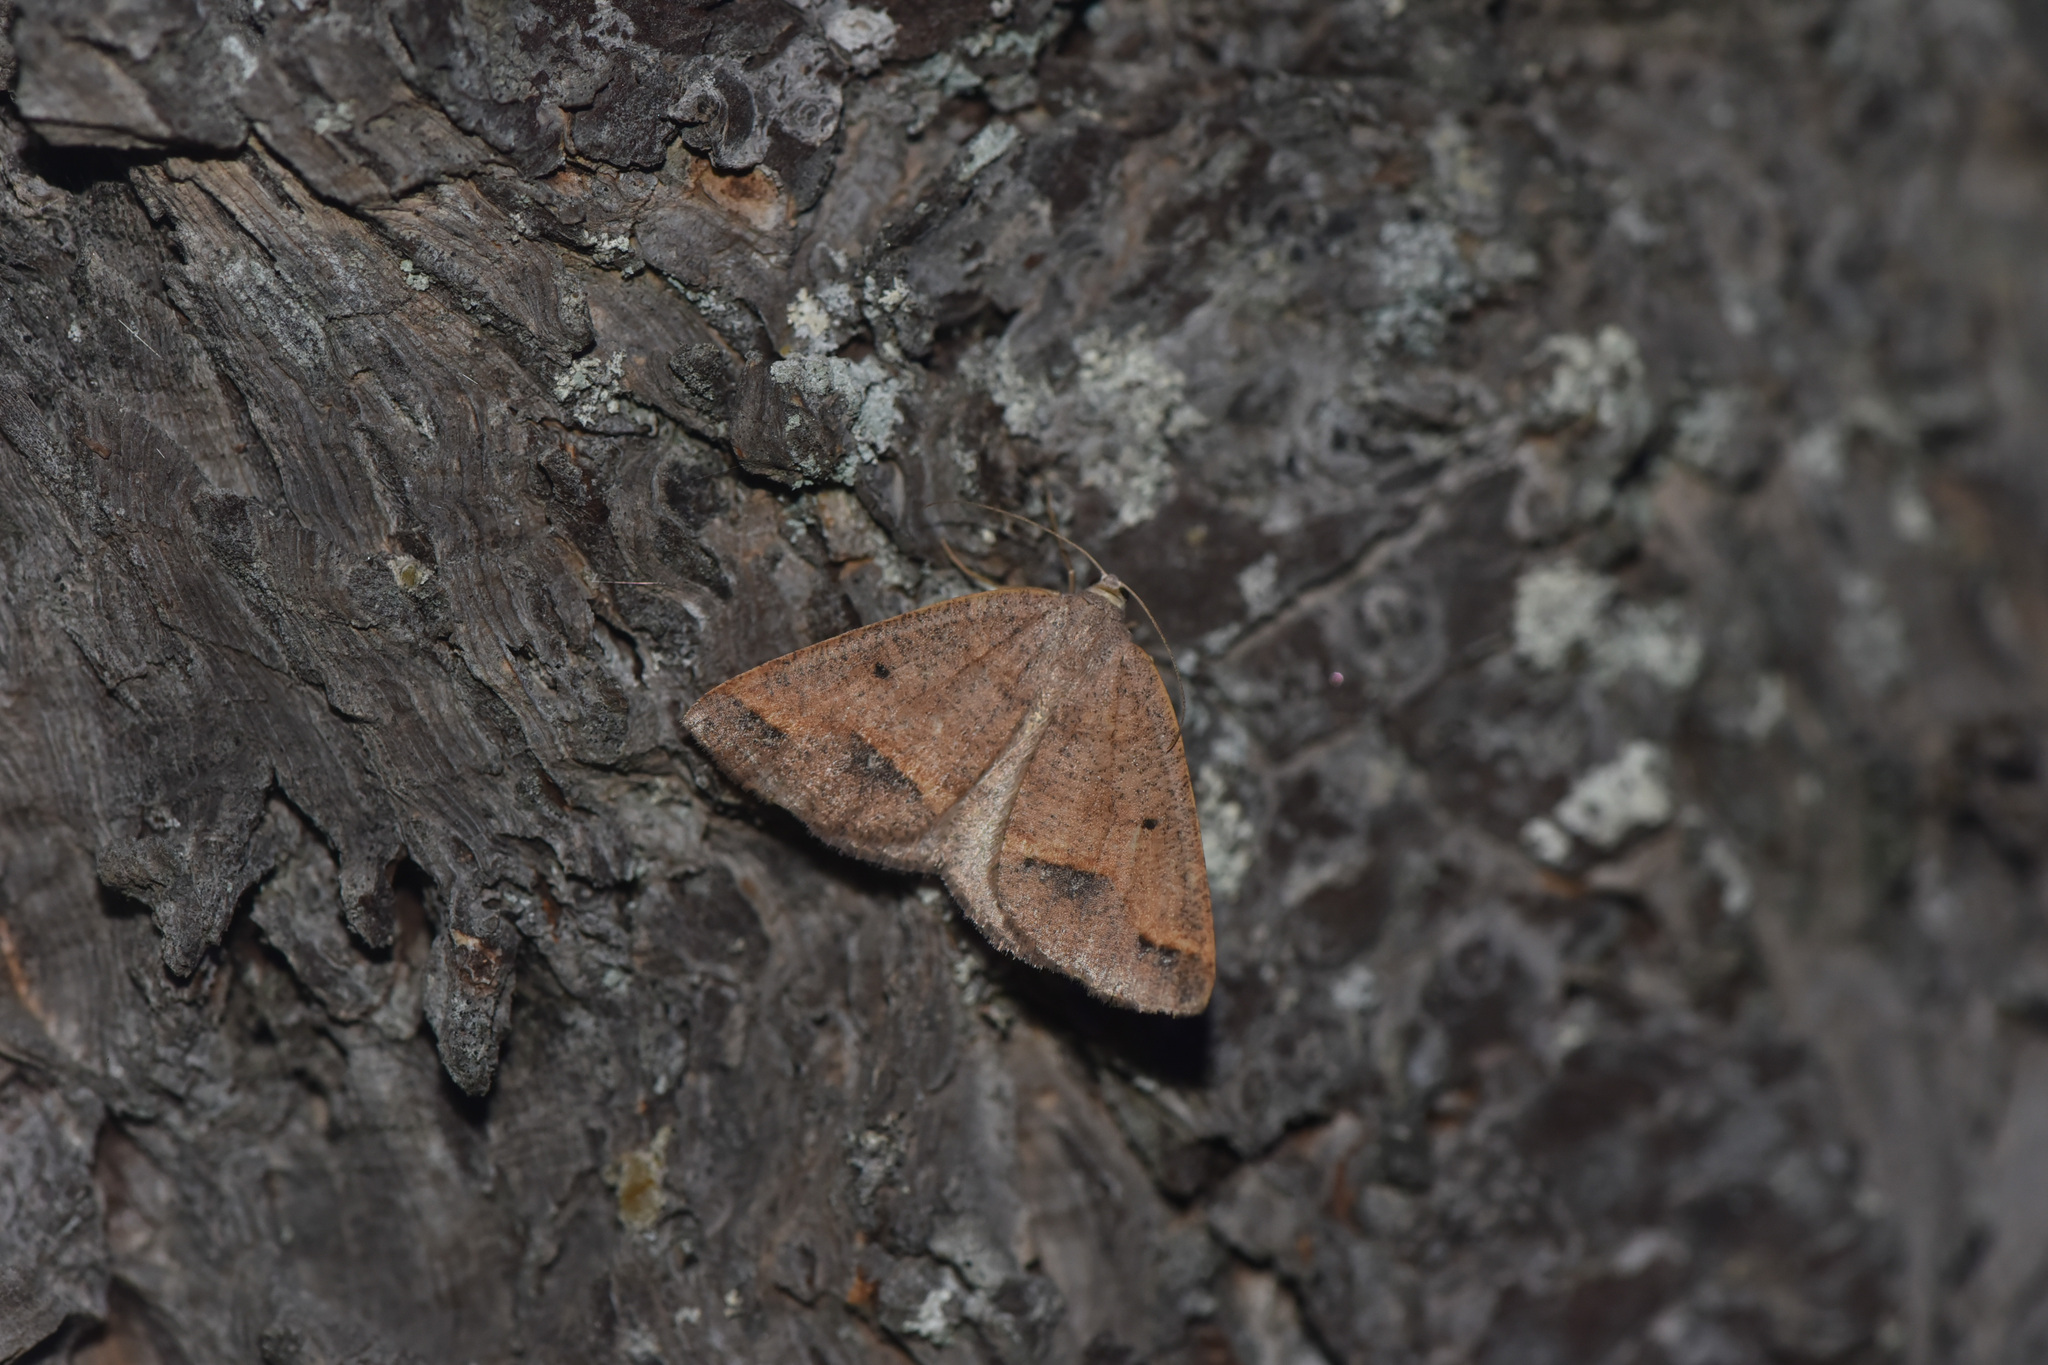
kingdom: Animalia
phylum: Arthropoda
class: Insecta
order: Lepidoptera
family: Geometridae
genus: Drepanulatrix
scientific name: Drepanulatrix unicalcararia
